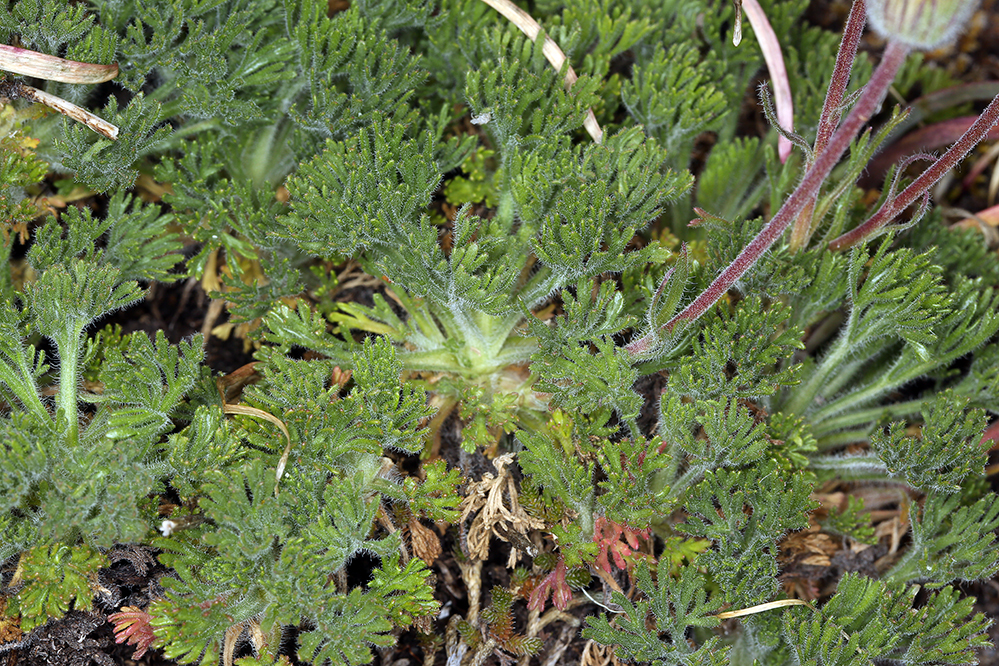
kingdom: Plantae
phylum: Tracheophyta
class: Magnoliopsida
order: Asterales
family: Asteraceae
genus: Erigeron
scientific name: Erigeron compositus
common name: Dwarf mountain fleabane
